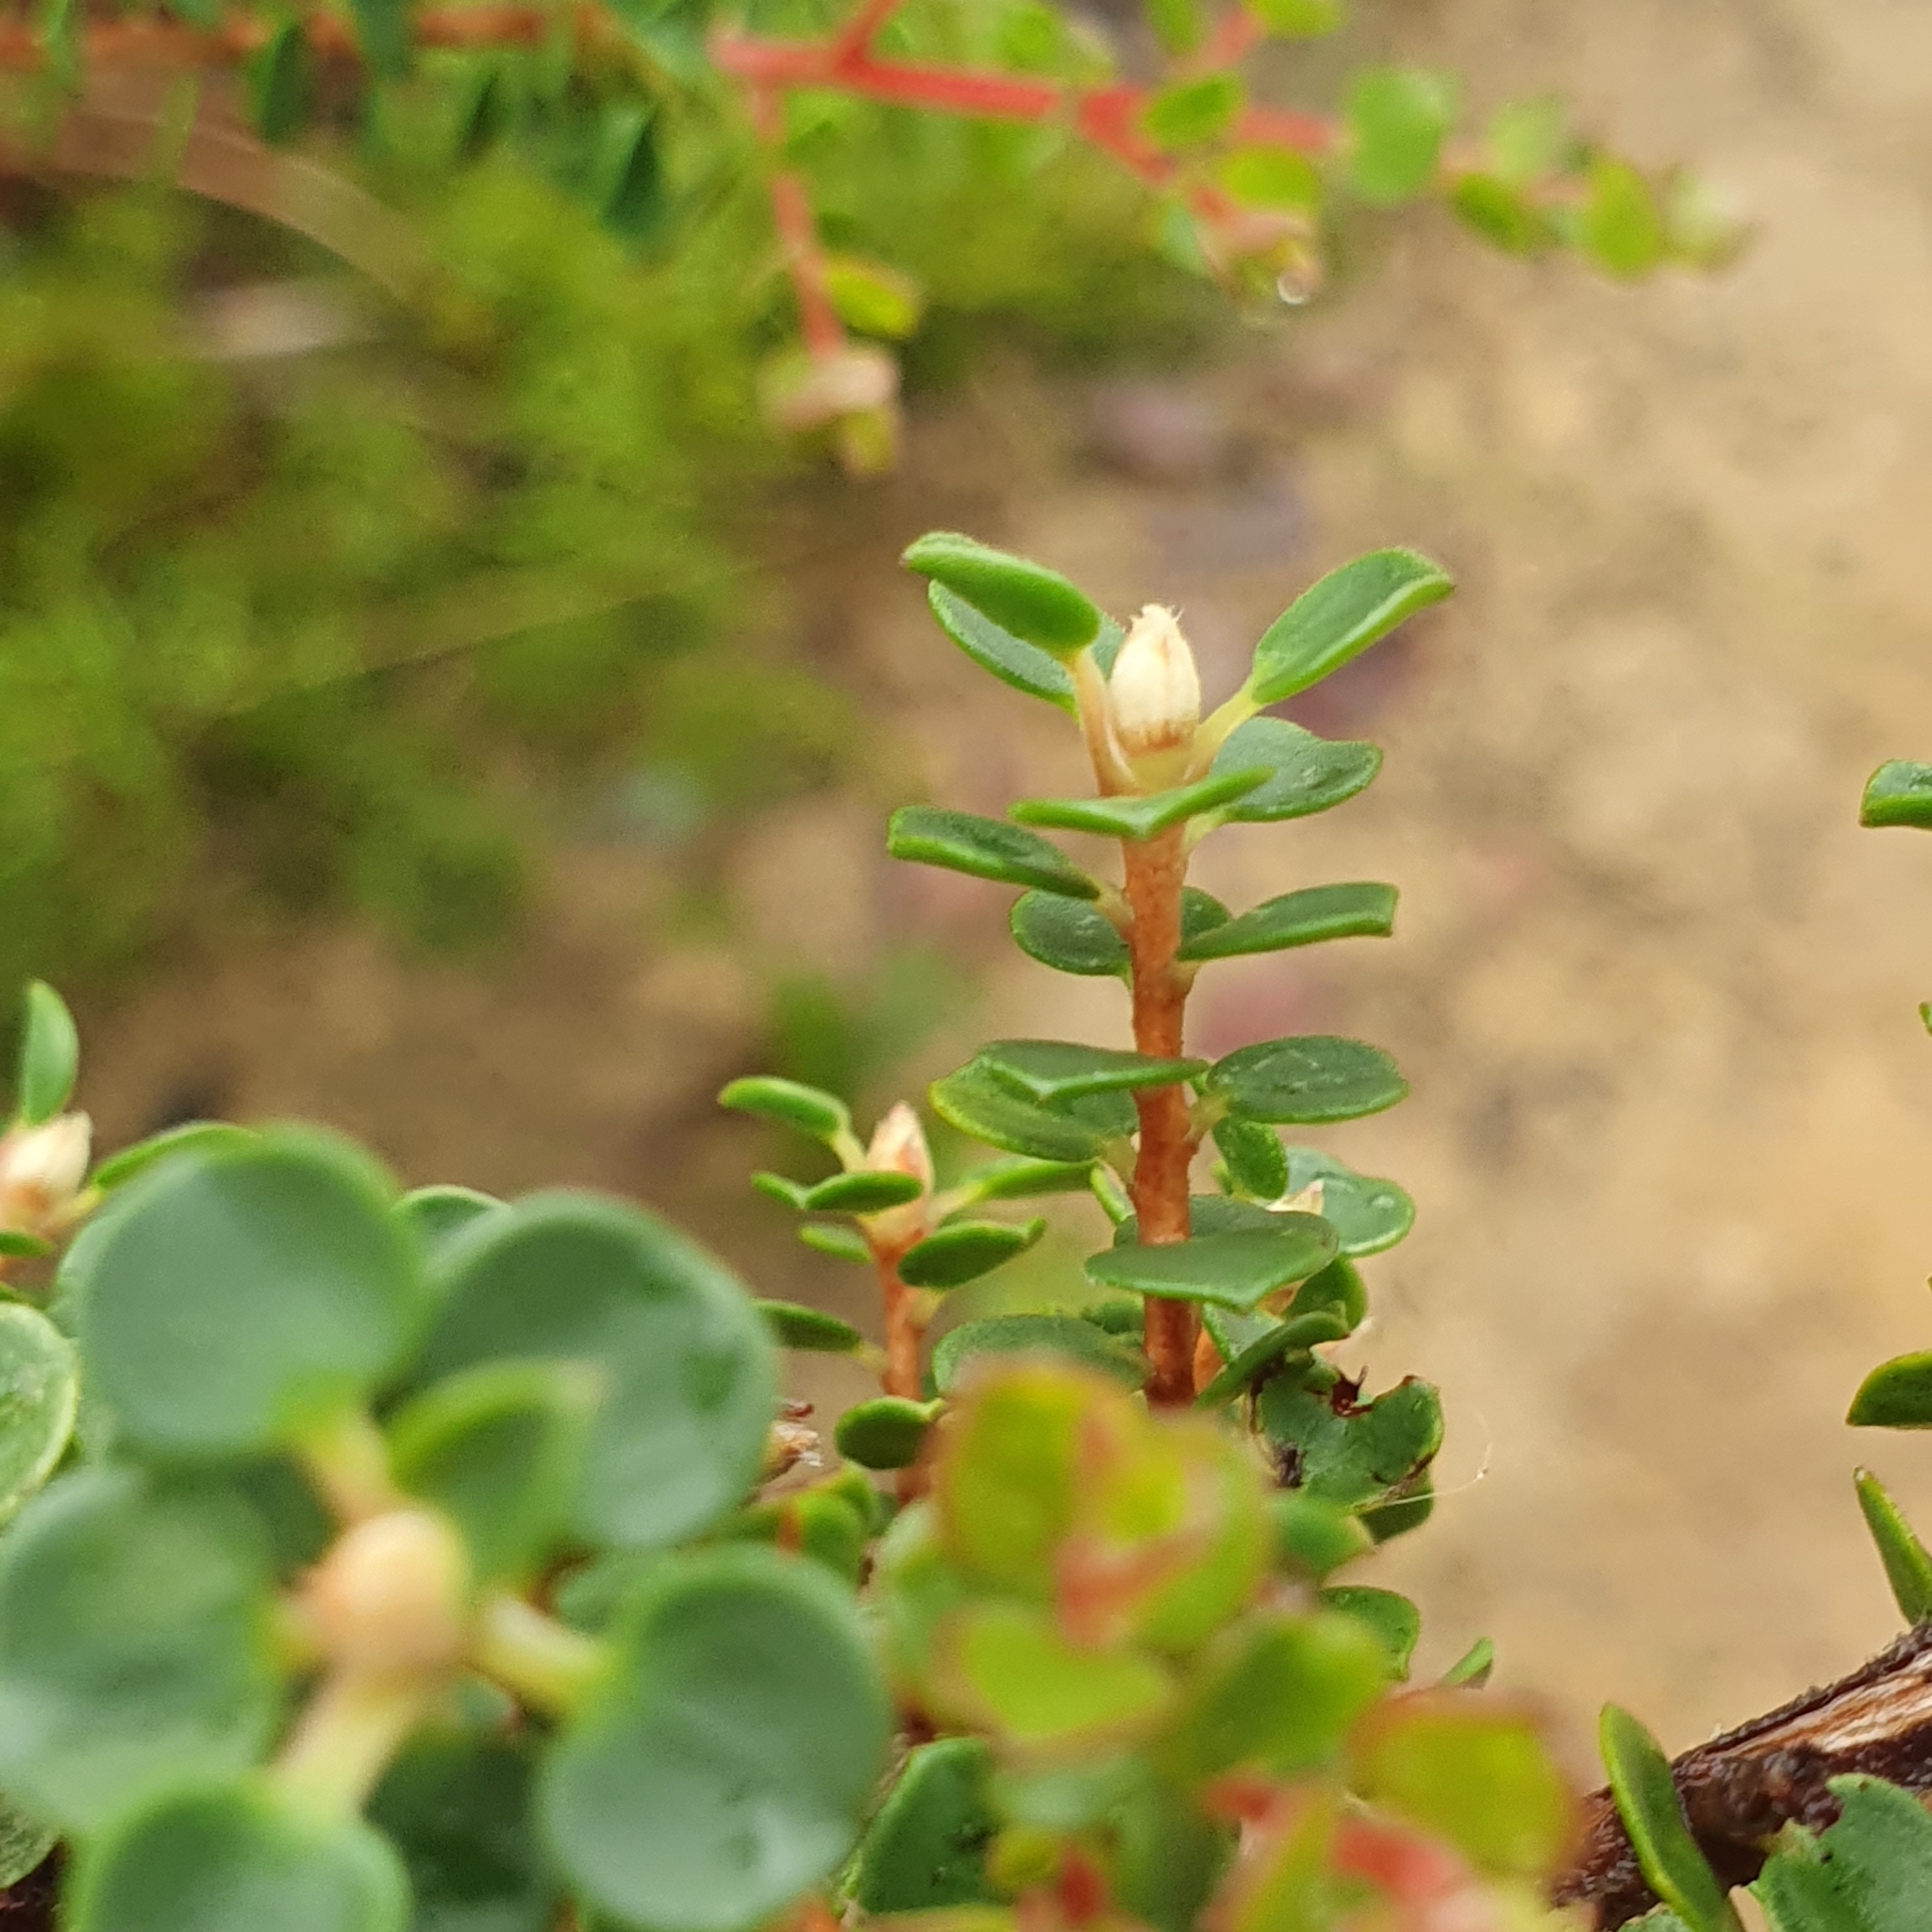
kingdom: Plantae
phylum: Tracheophyta
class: Magnoliopsida
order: Myrtales
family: Myrtaceae
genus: Leptospermum
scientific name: Leptospermum rotundifolium
